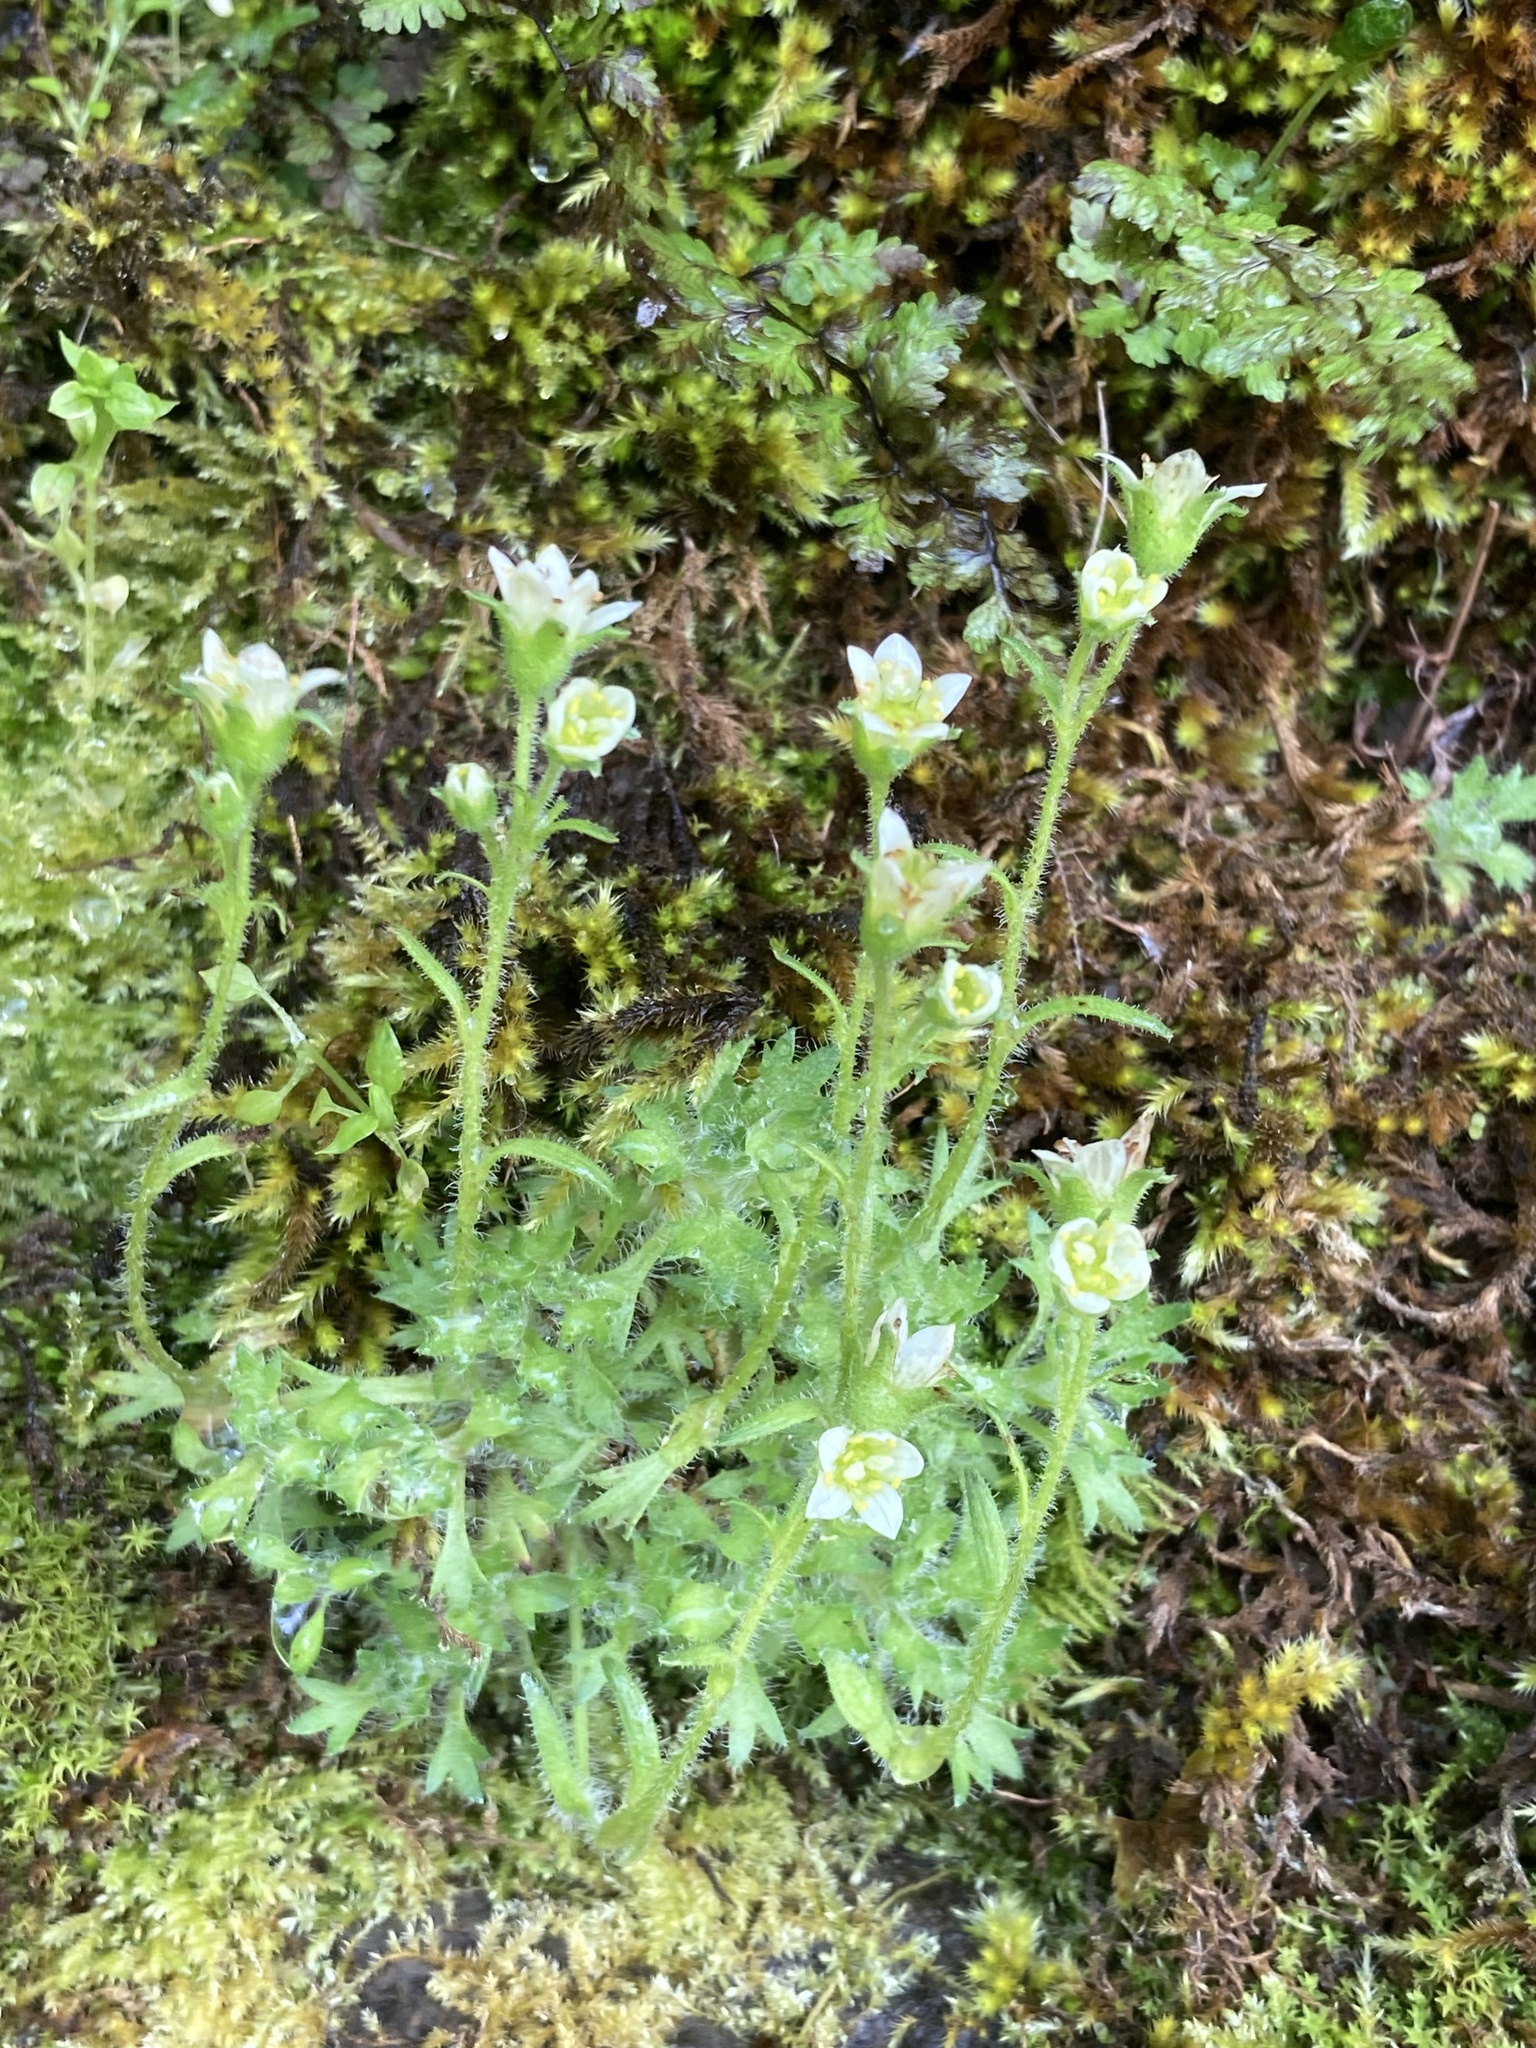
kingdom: Plantae
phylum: Tracheophyta
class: Magnoliopsida
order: Saxifragales
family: Saxifragaceae
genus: Saxifraga
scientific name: Saxifraga cespitosa
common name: Tufted saxifrage
